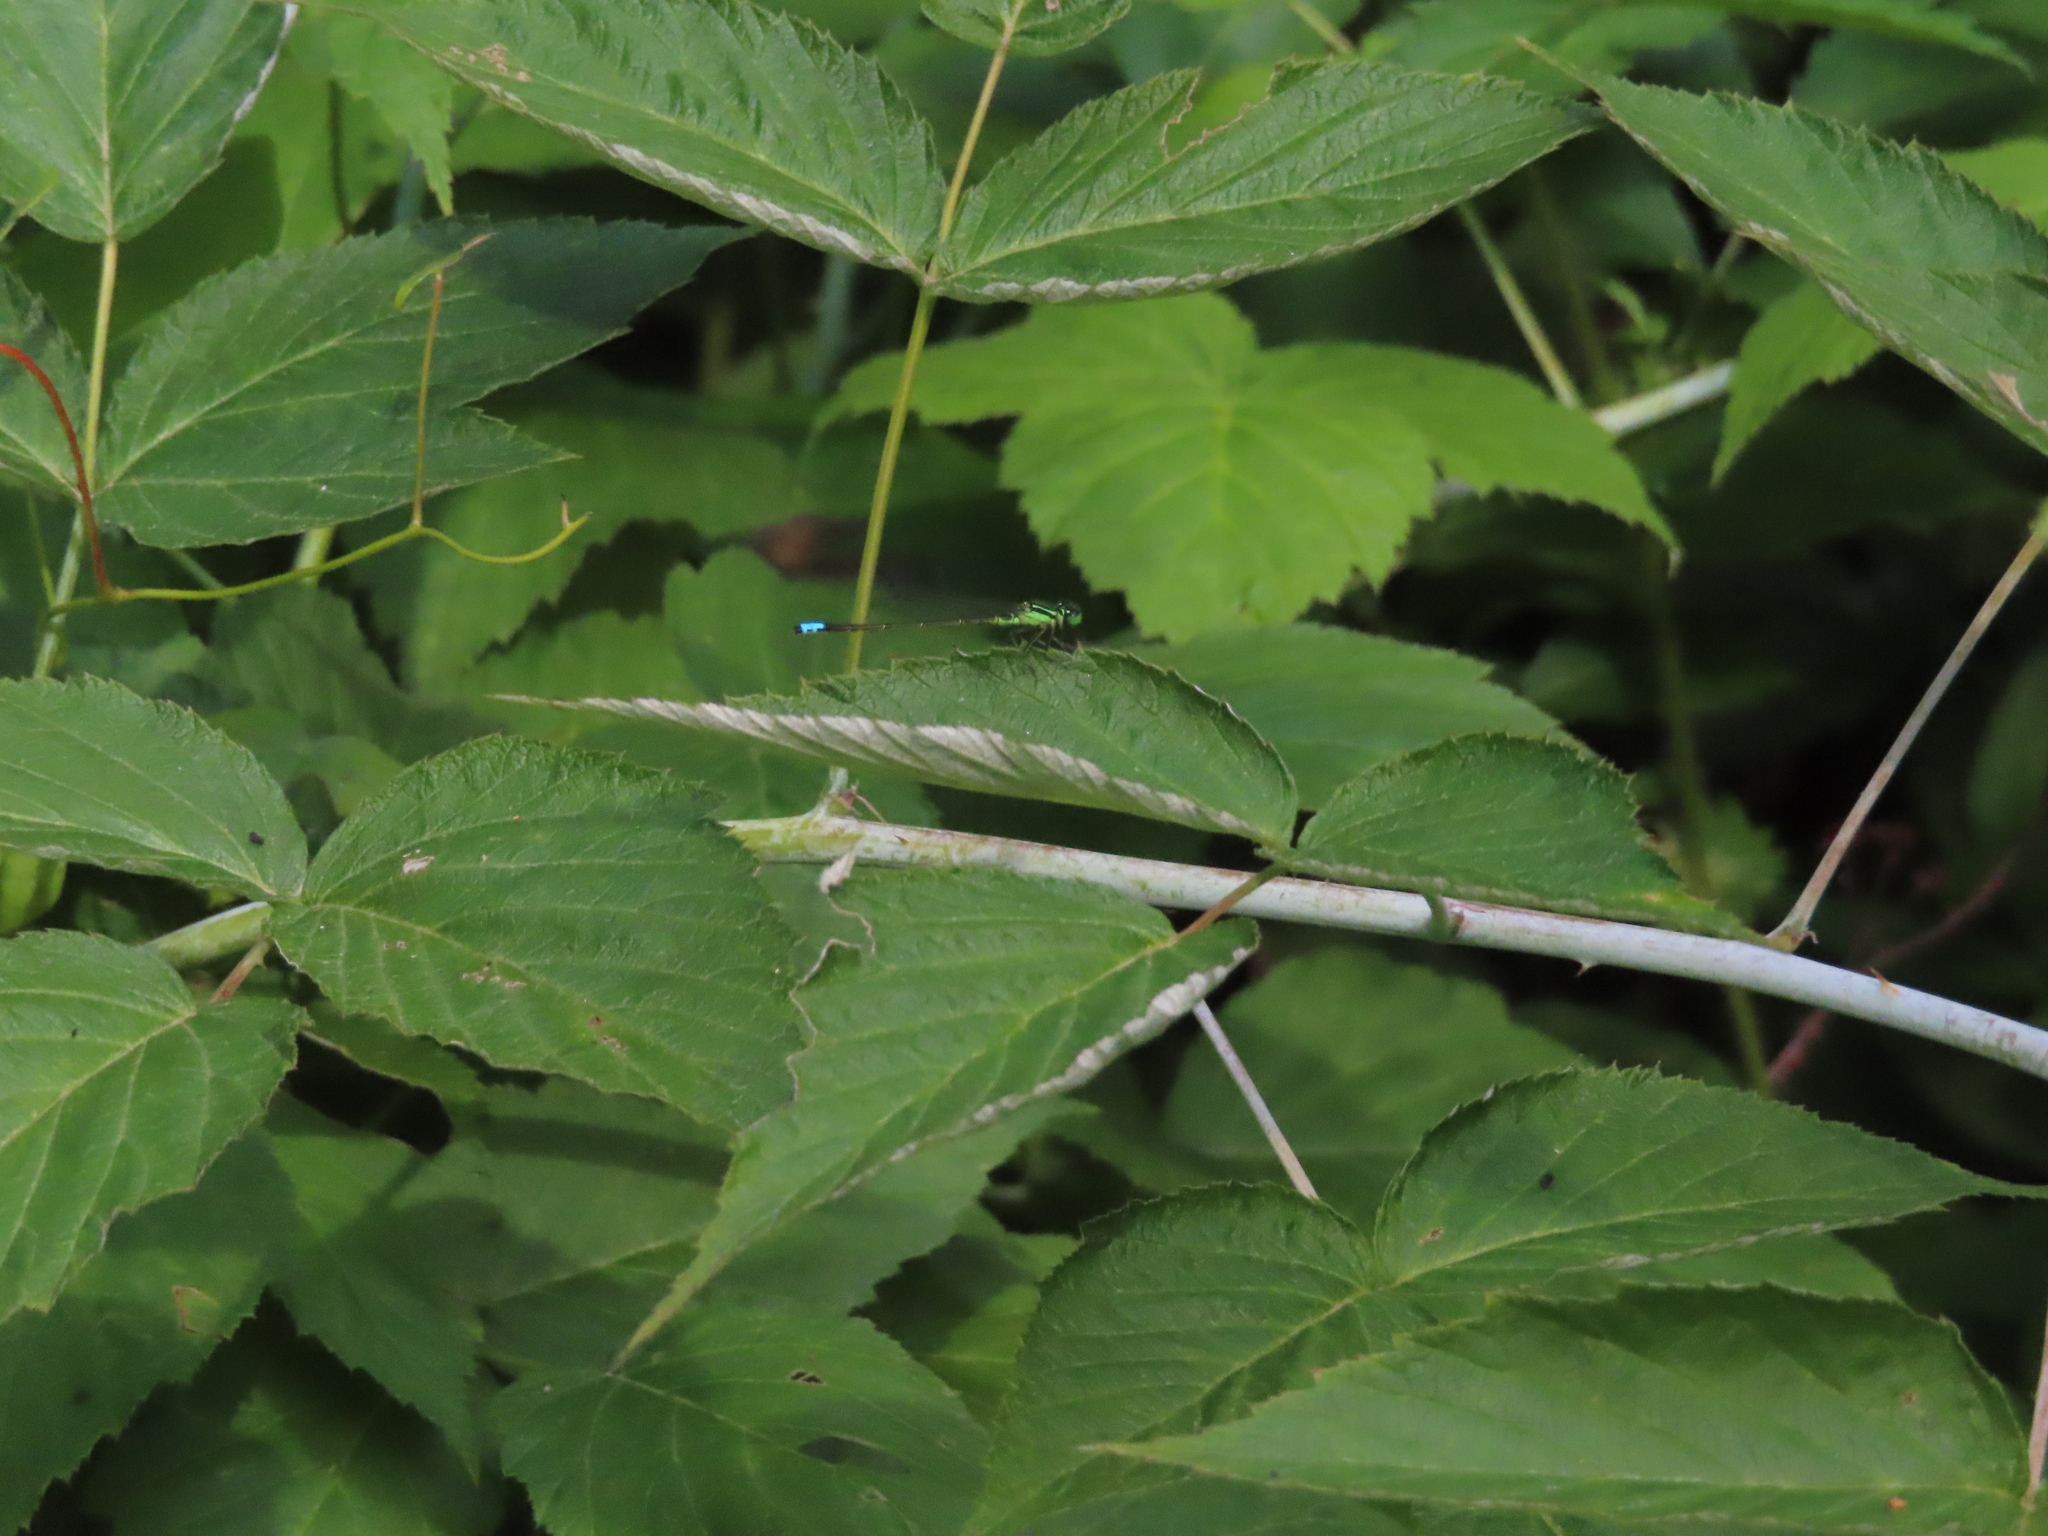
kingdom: Animalia
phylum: Arthropoda
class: Insecta
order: Odonata
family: Coenagrionidae
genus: Ischnura
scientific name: Ischnura verticalis
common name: Eastern forktail
